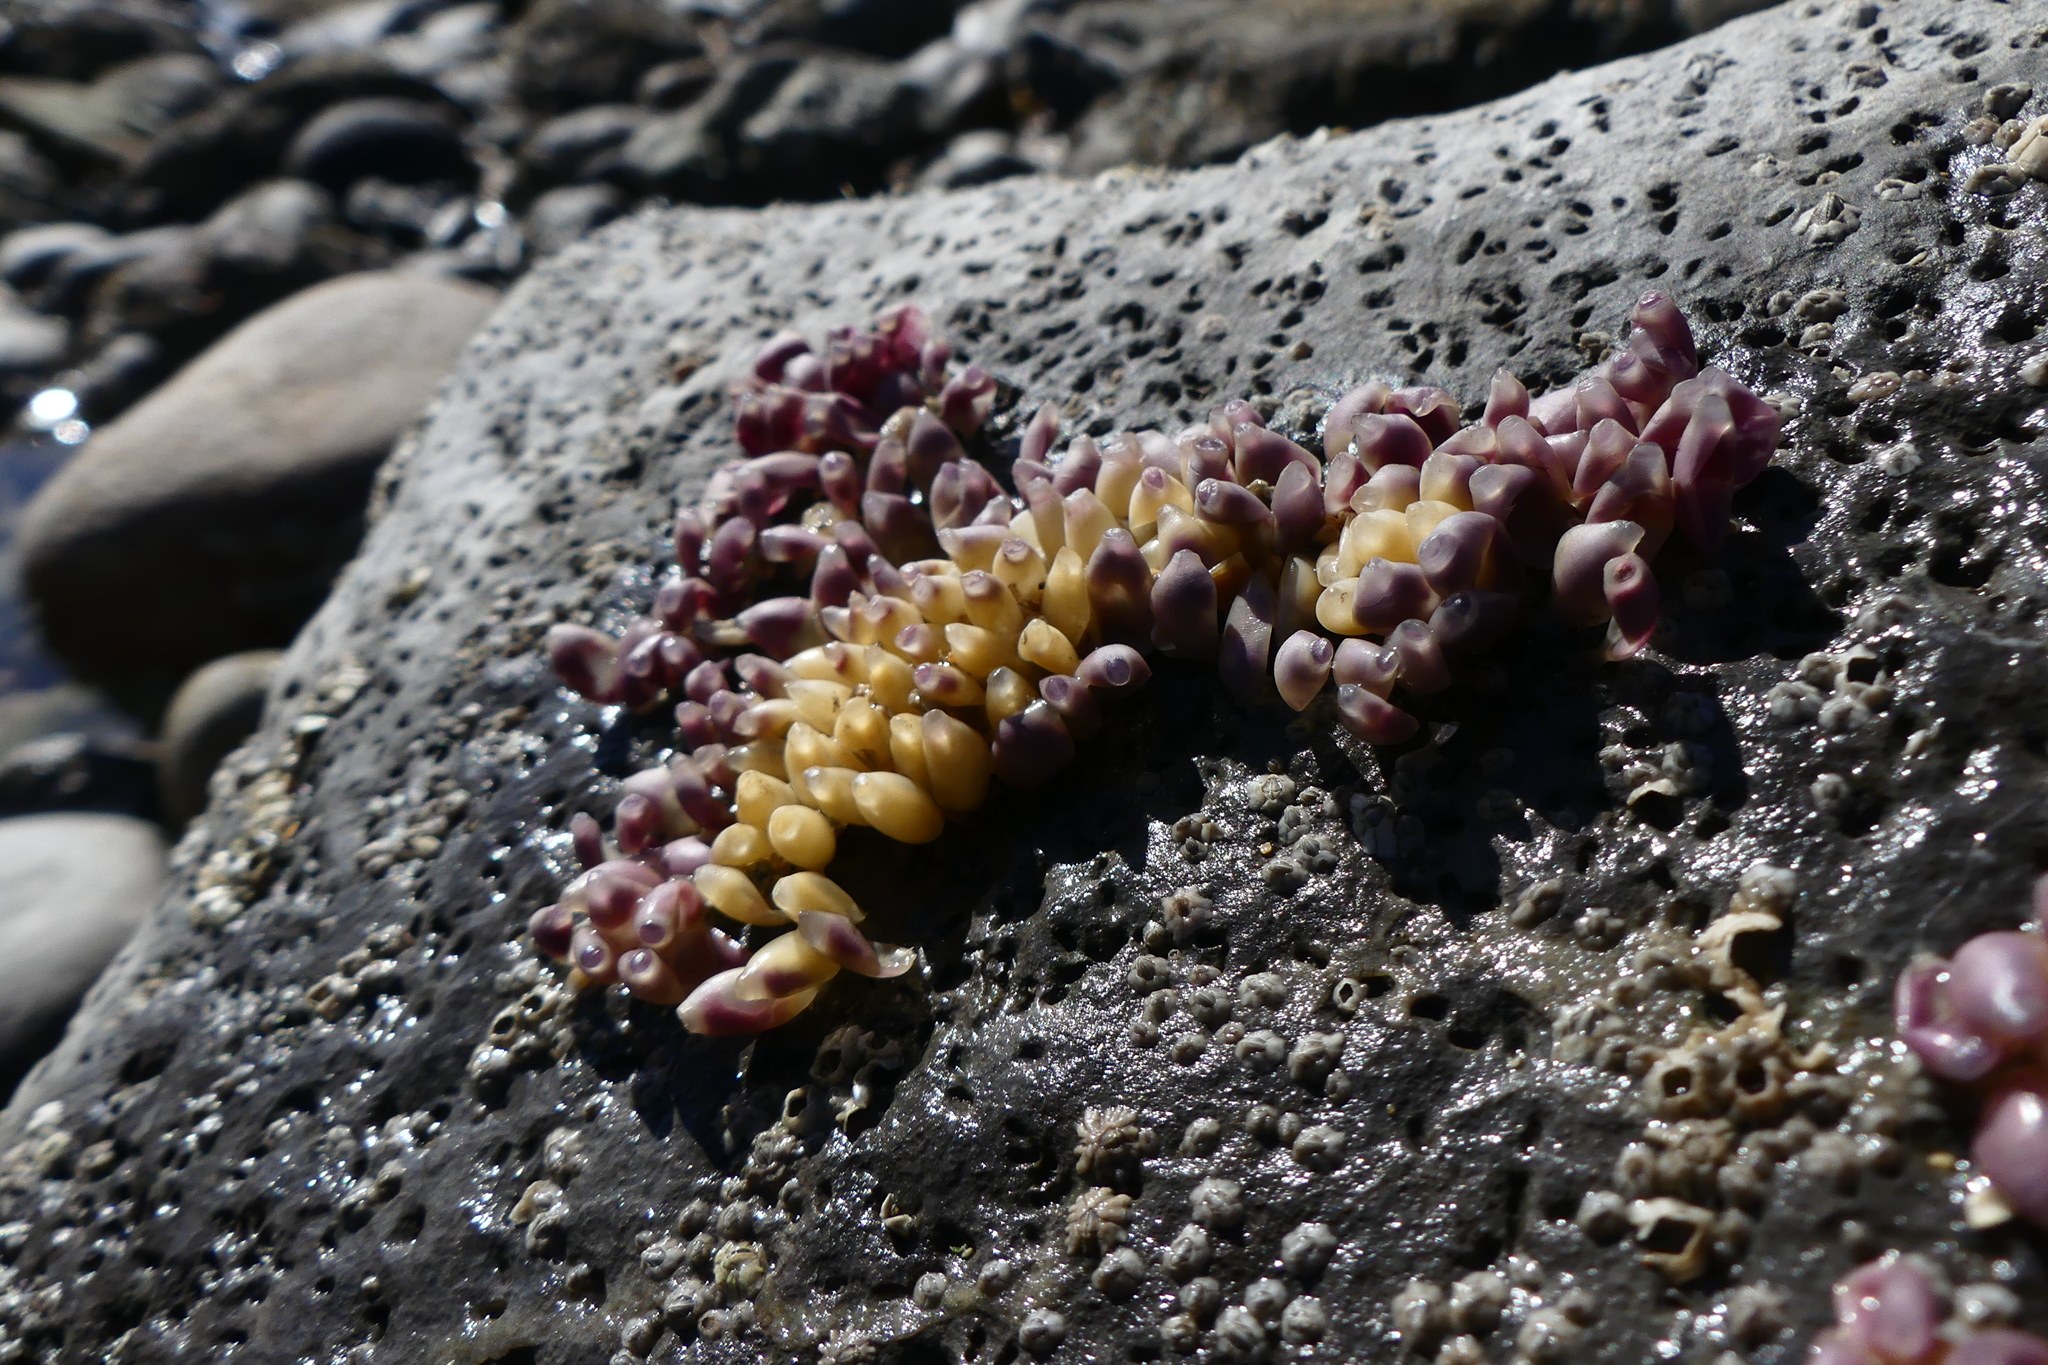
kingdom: Animalia
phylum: Mollusca
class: Gastropoda
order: Neogastropoda
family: Muricidae
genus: Nucella
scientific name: Nucella lapillus
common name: Dog whelk
